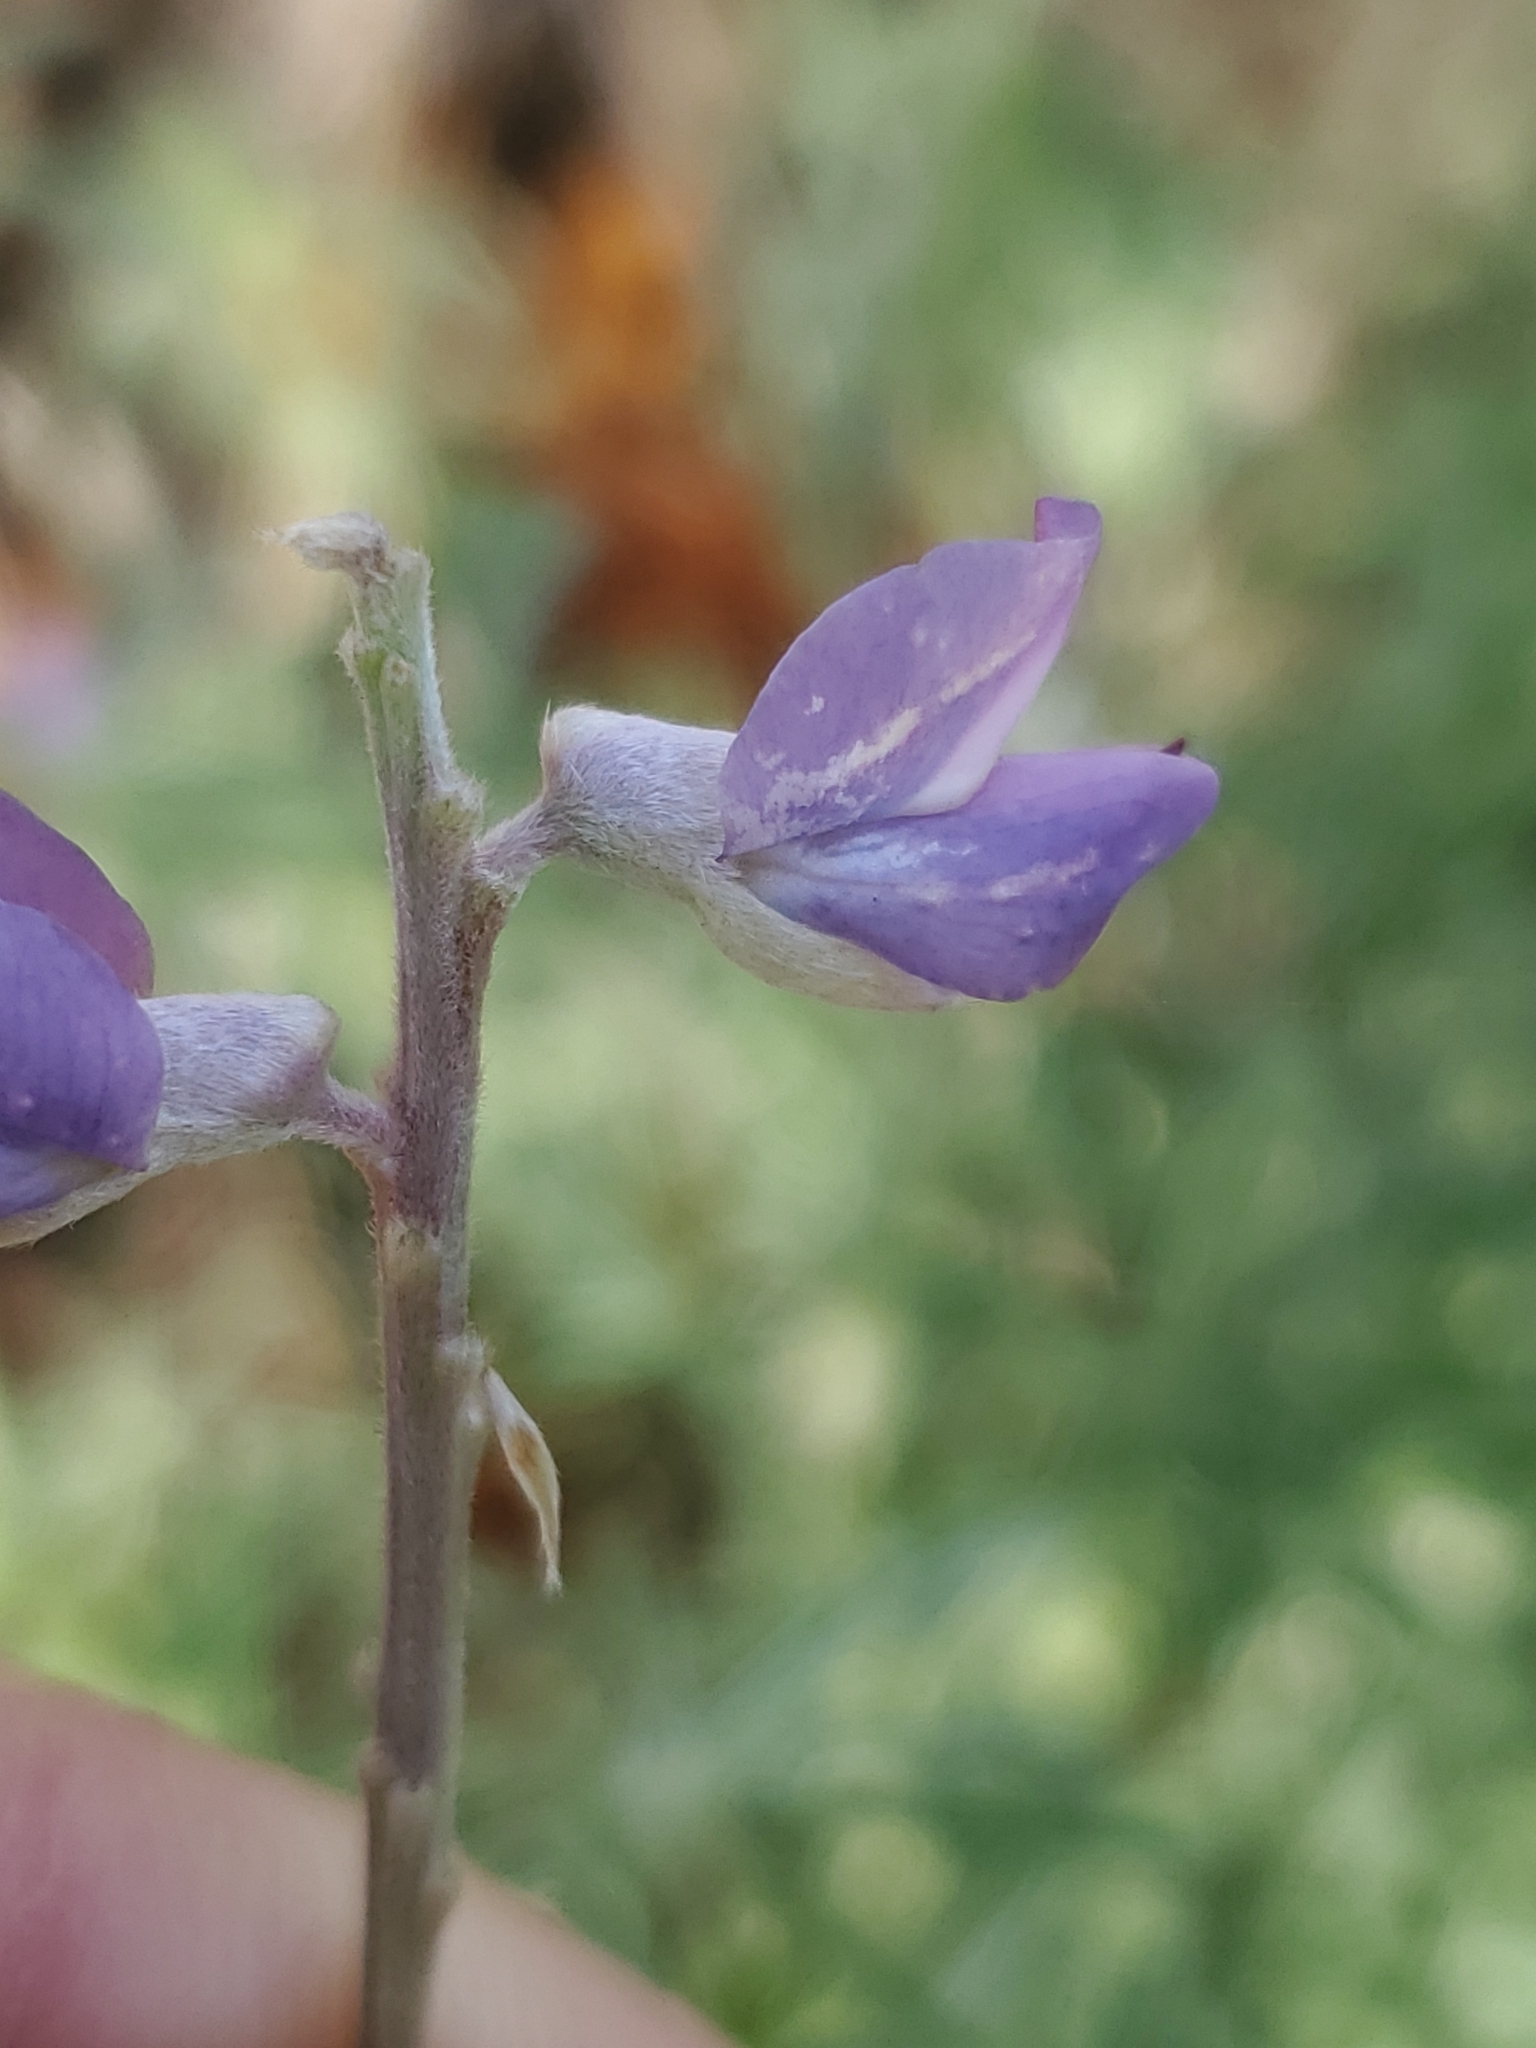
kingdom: Plantae
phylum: Tracheophyta
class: Magnoliopsida
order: Fabales
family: Fabaceae
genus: Lupinus
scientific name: Lupinus caudatus
